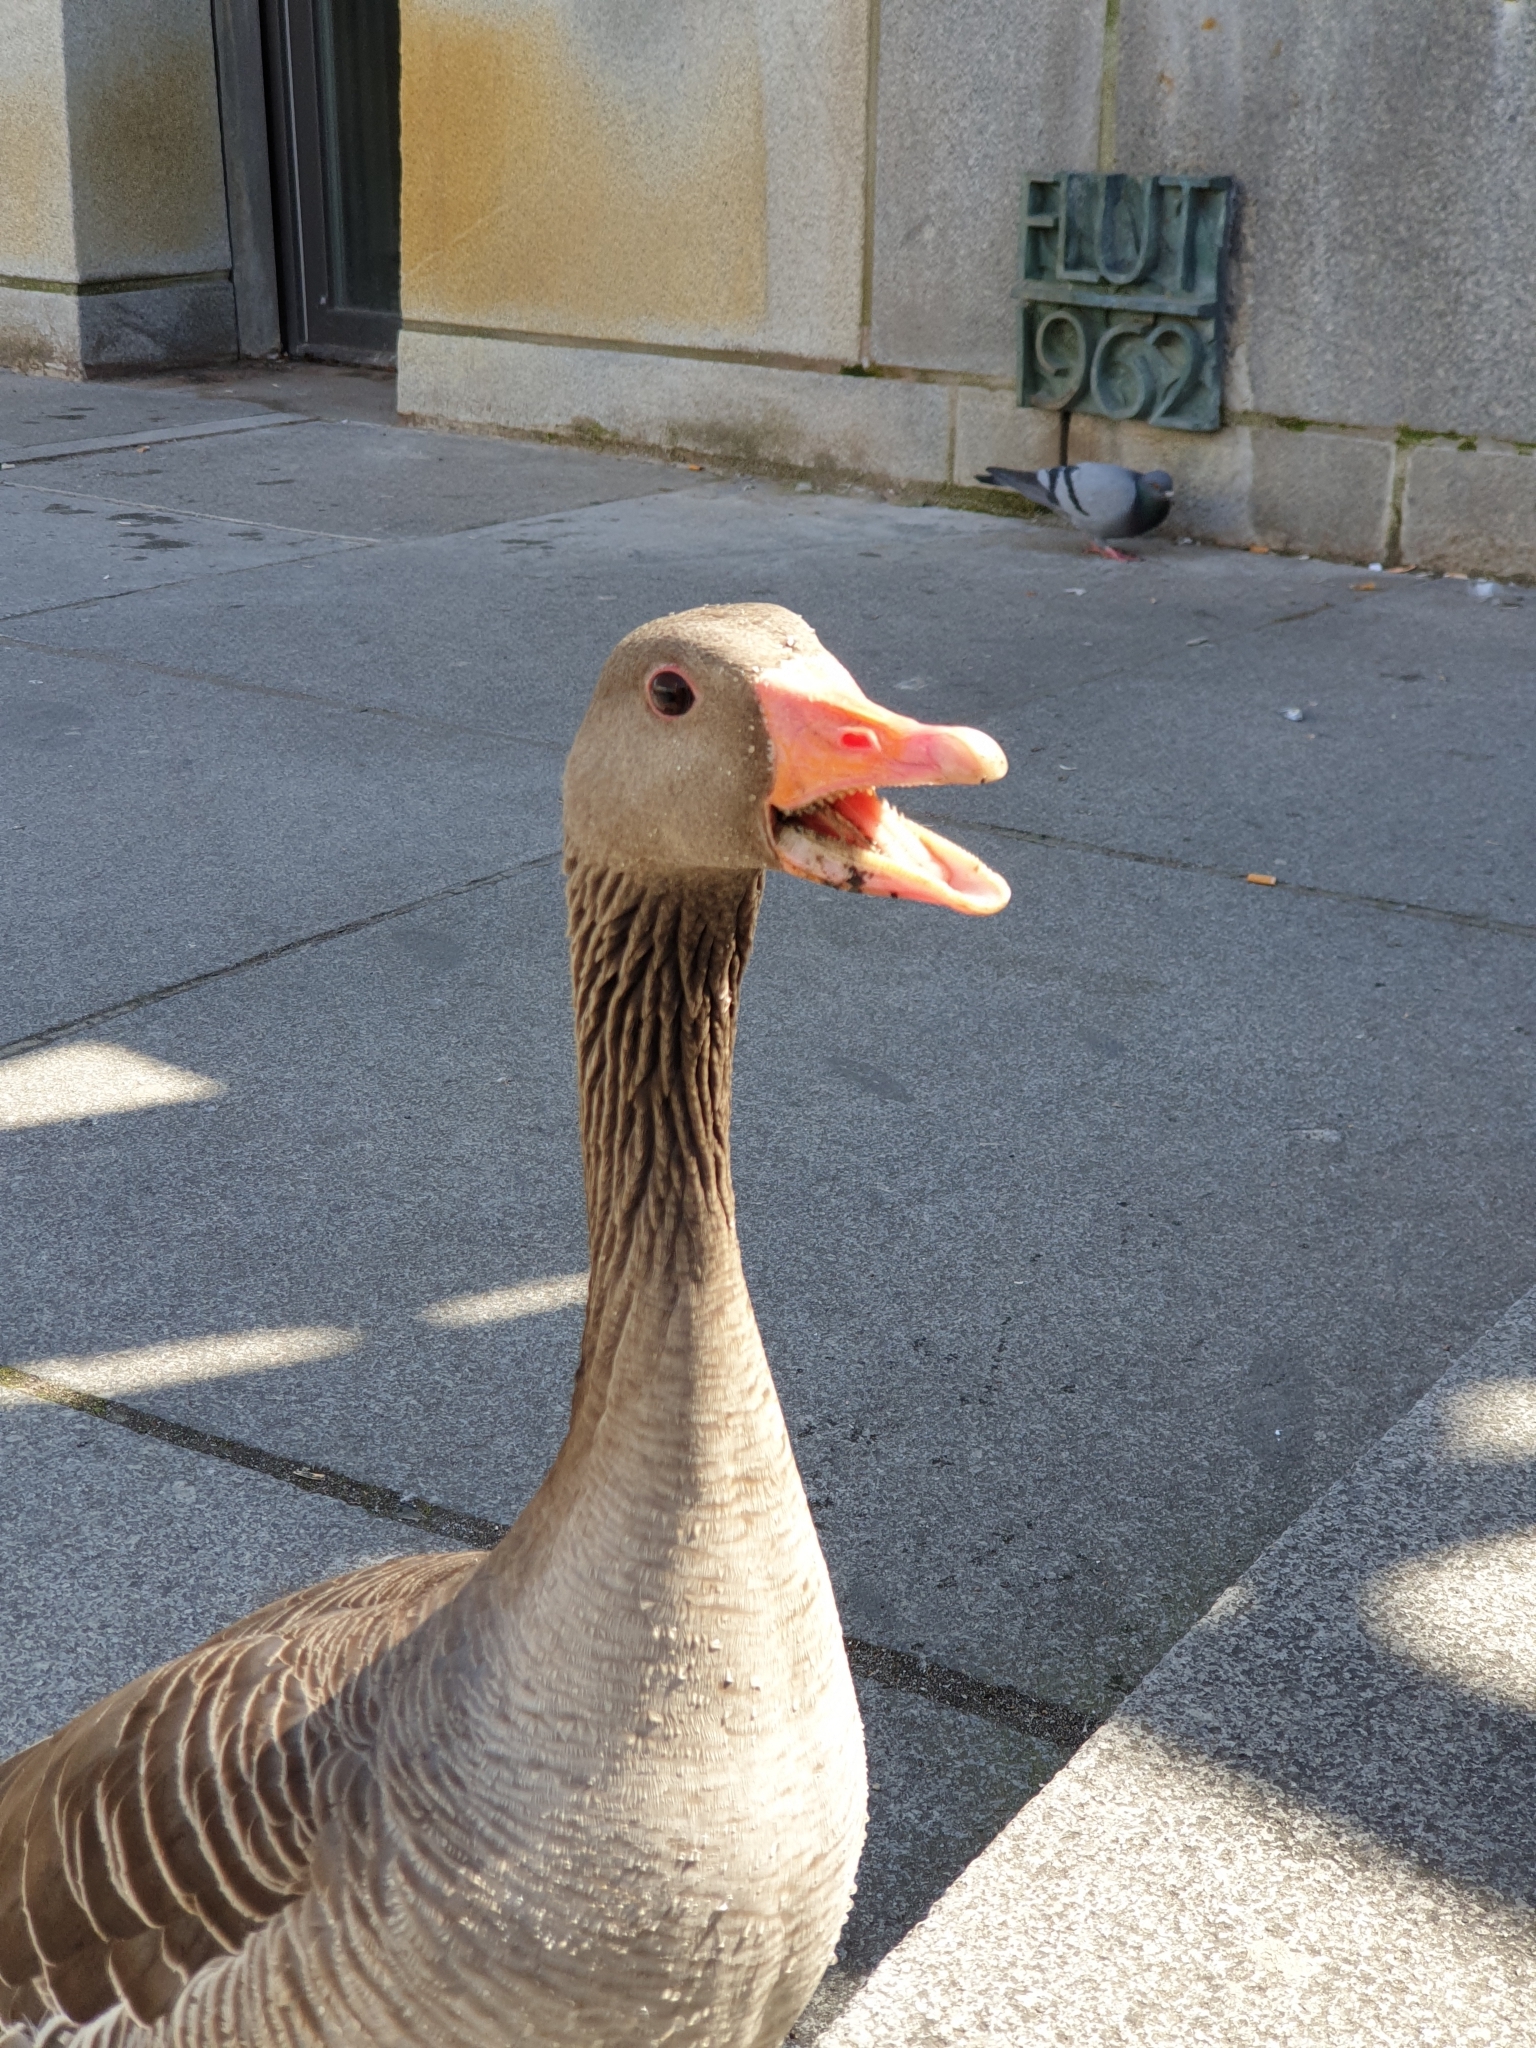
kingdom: Animalia
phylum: Chordata
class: Aves
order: Anseriformes
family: Anatidae
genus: Anser
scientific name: Anser anser
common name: Greylag goose
